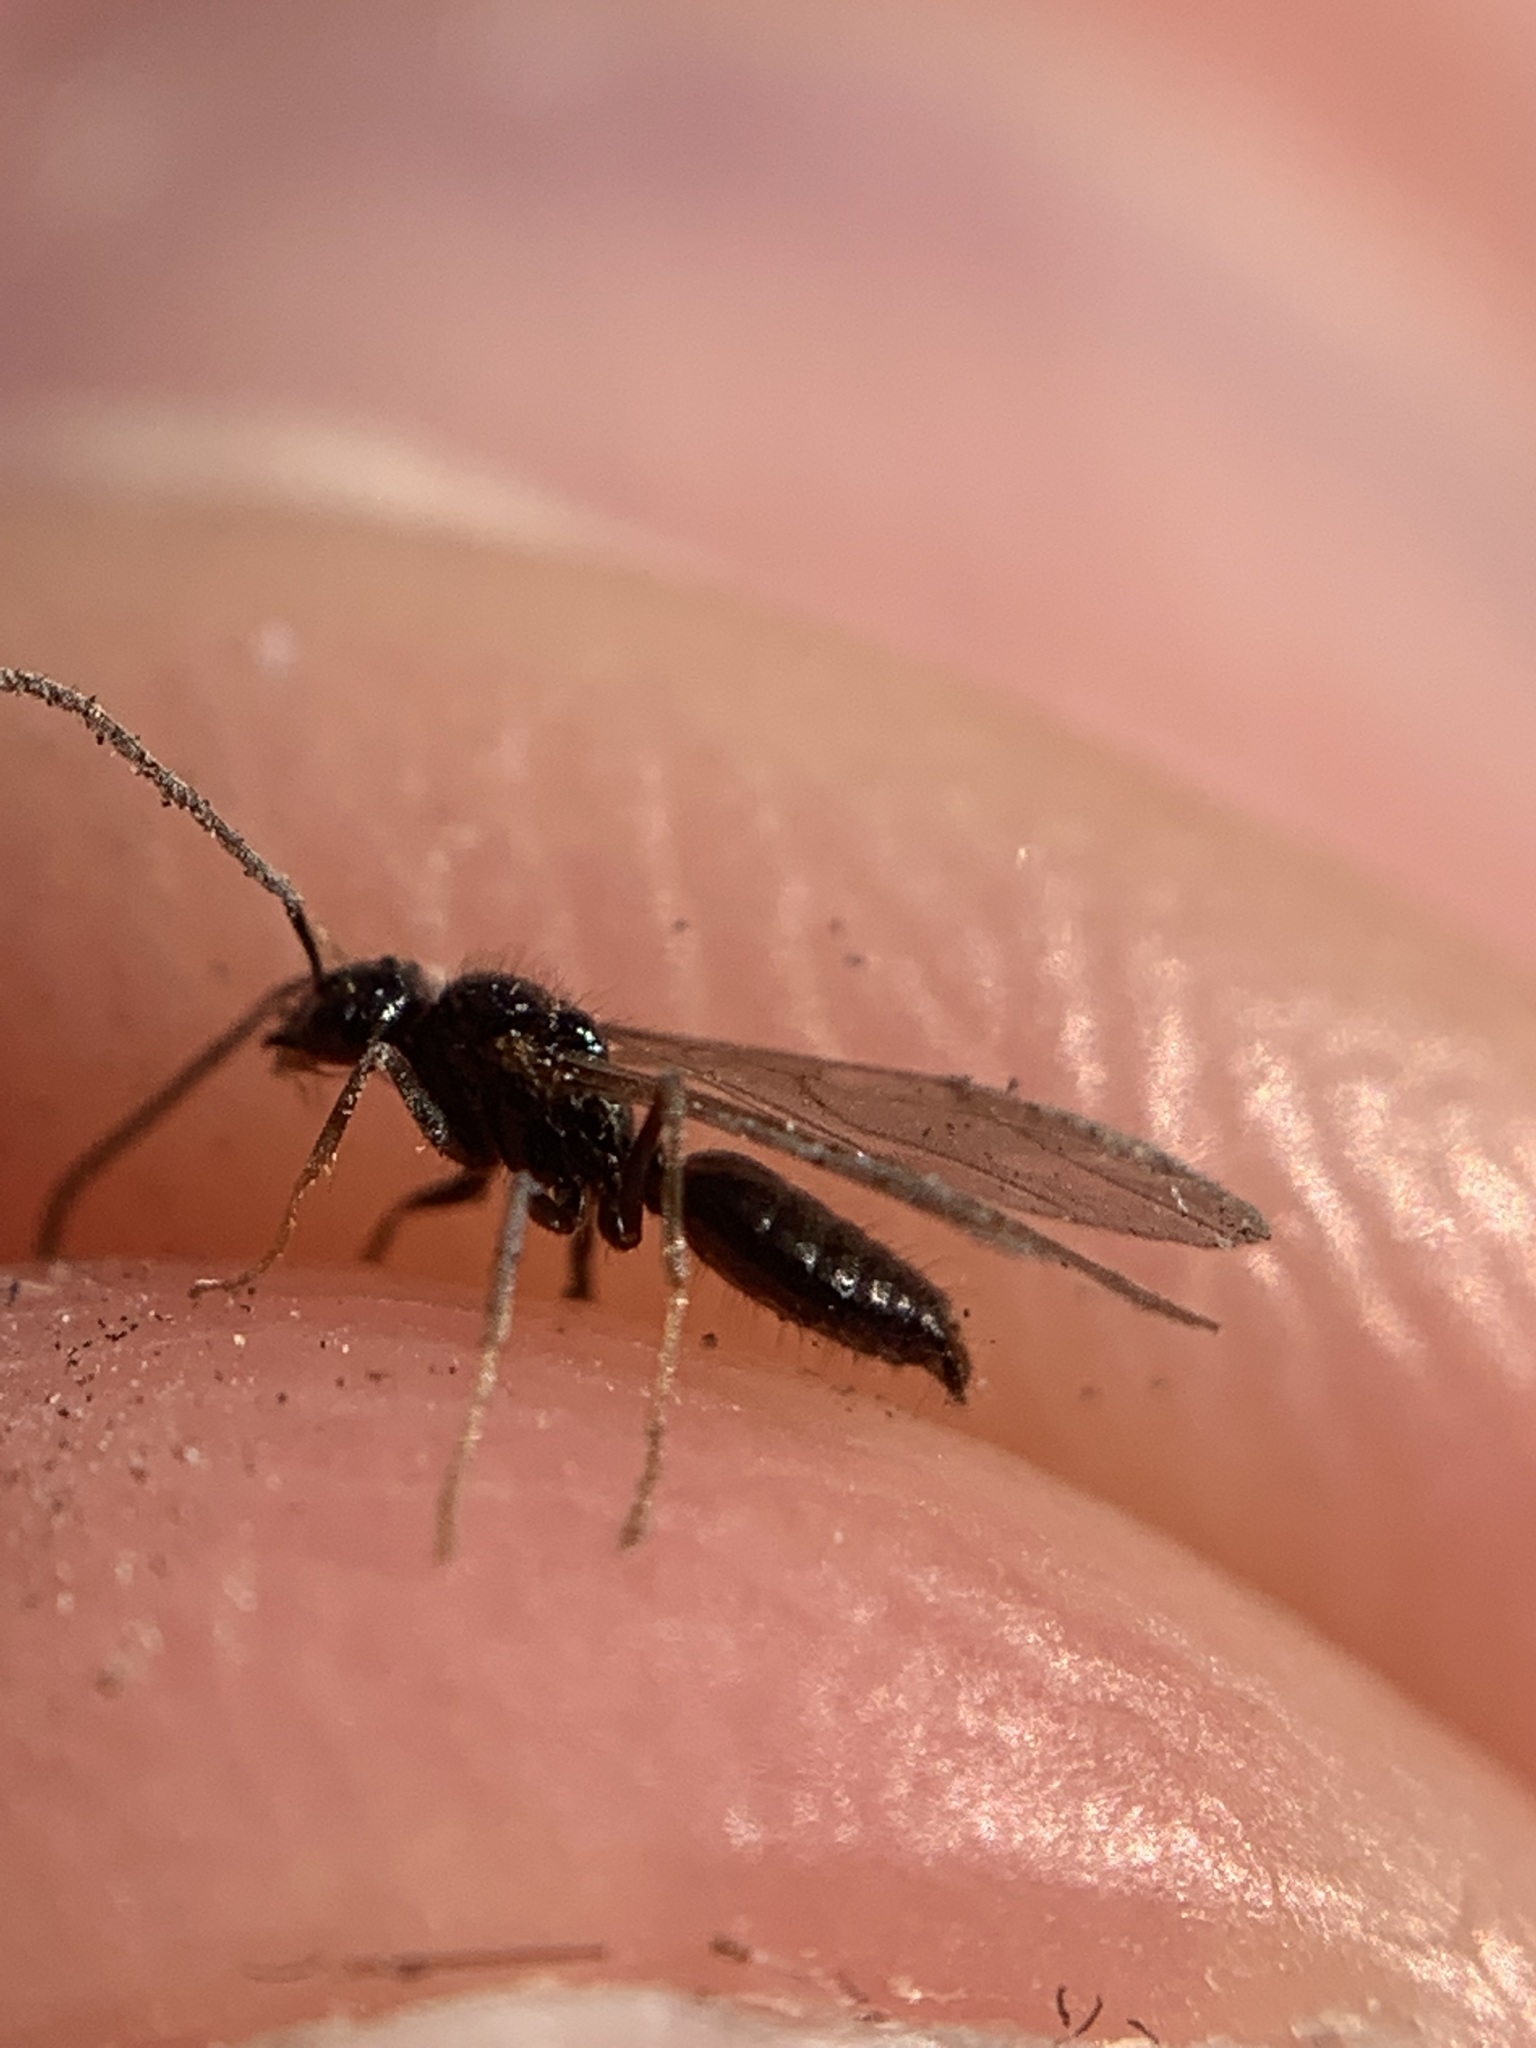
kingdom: Animalia
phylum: Arthropoda
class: Insecta
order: Hymenoptera
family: Formicidae
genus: Prenolepis
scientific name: Prenolepis imparis
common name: Small honey ant
